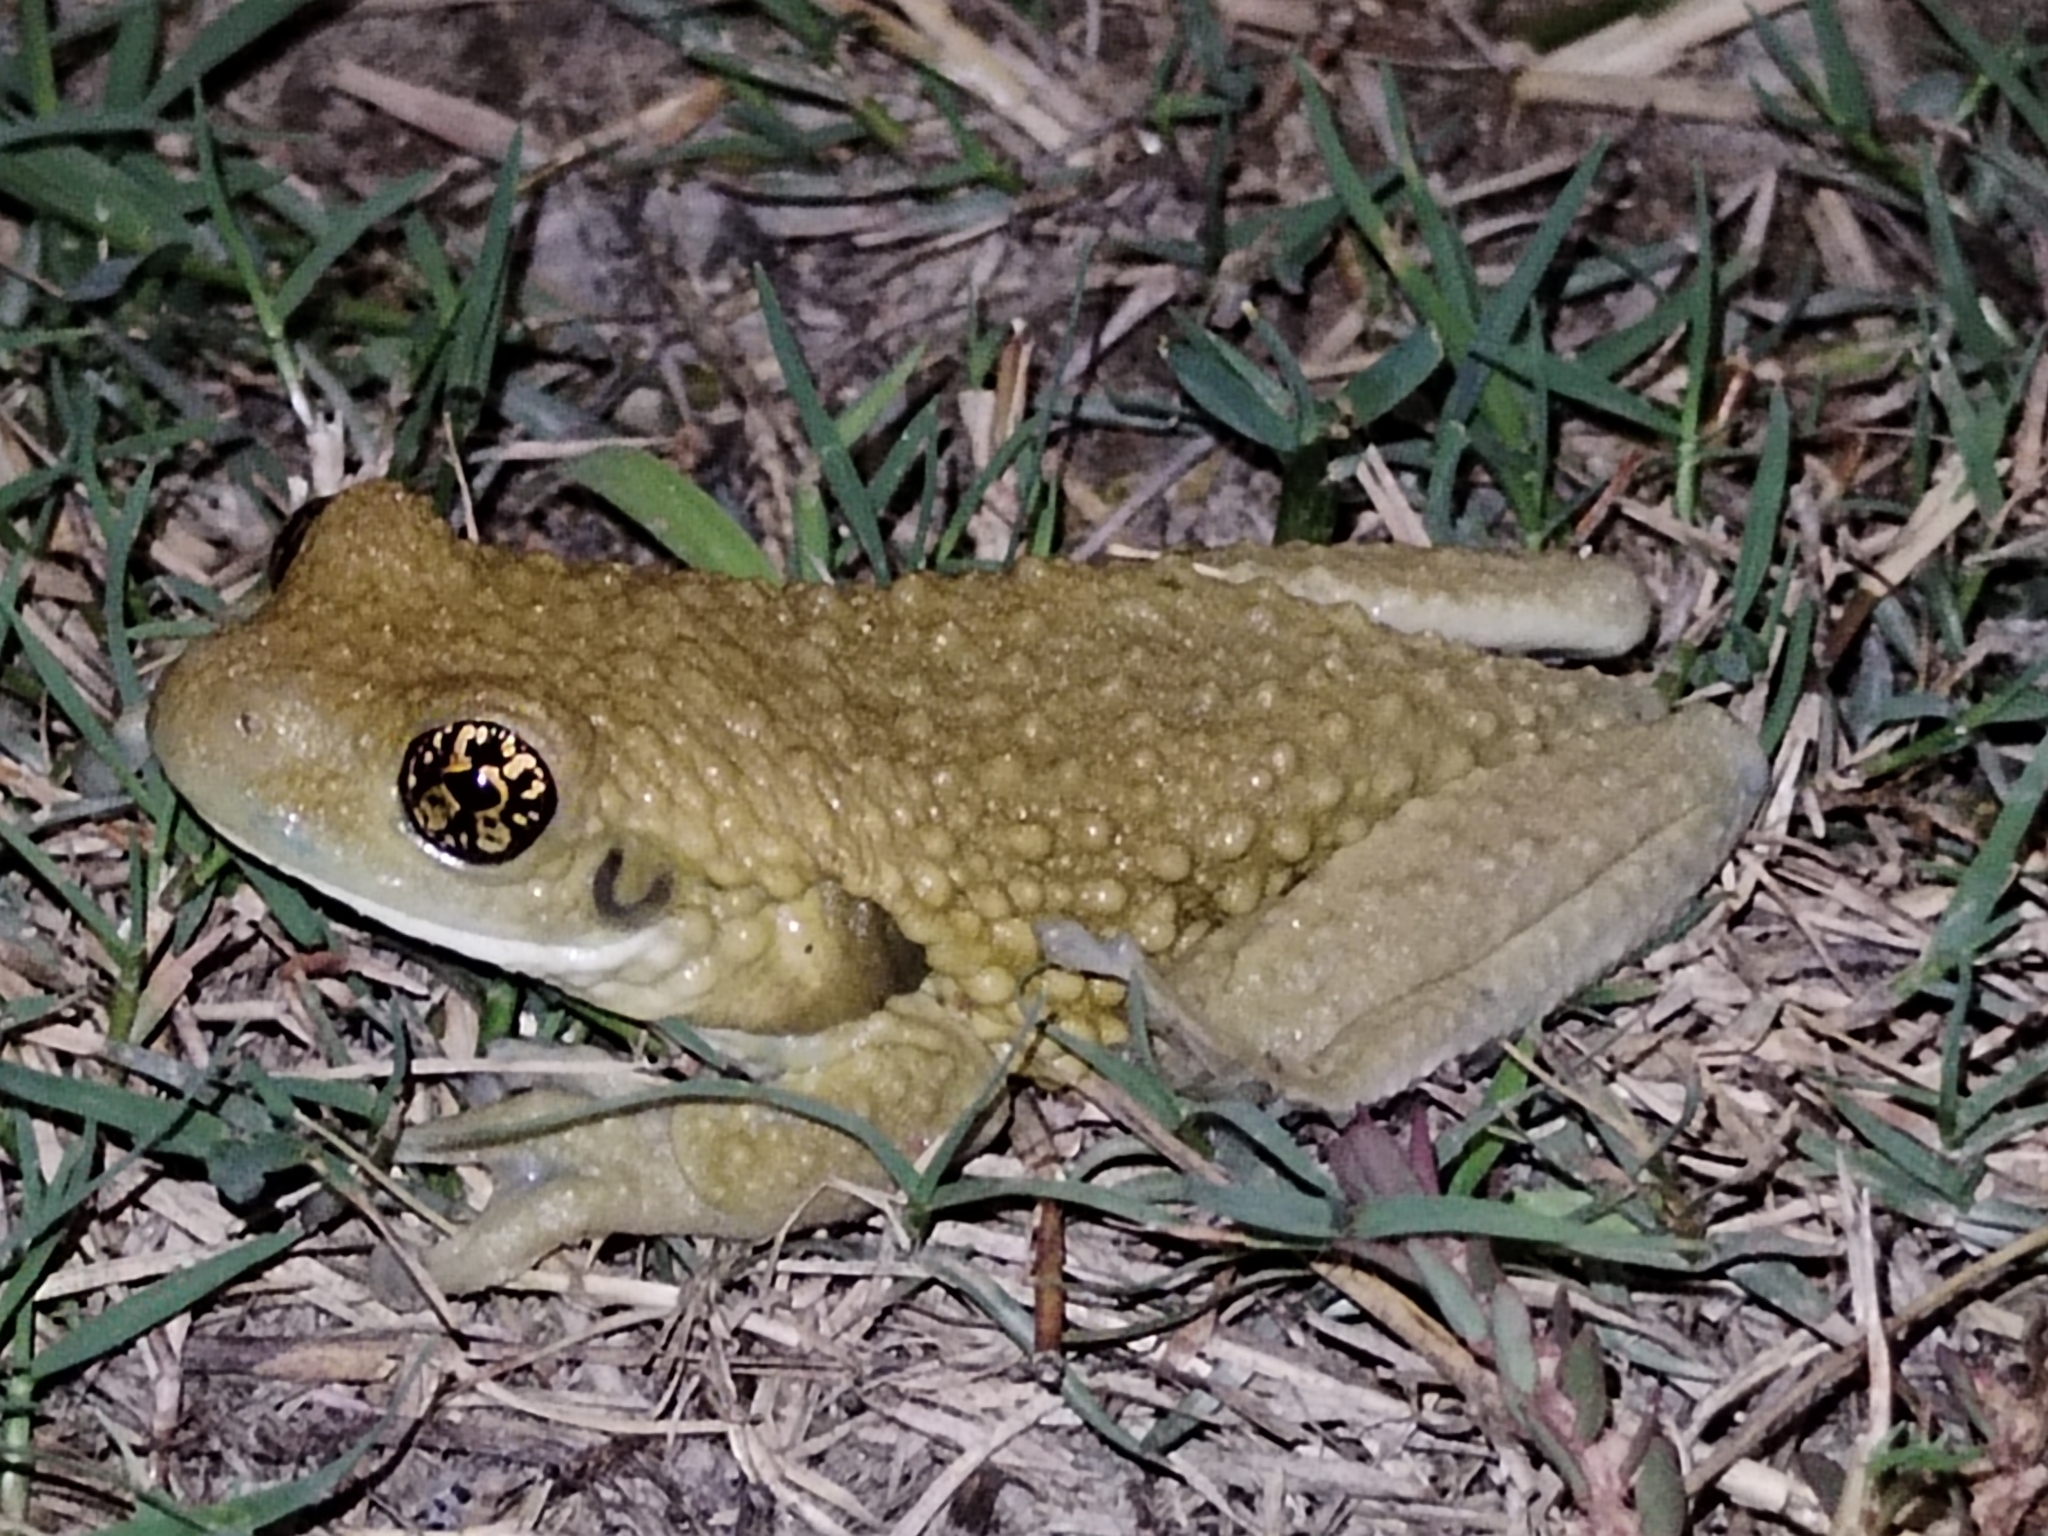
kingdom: Animalia
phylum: Chordata
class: Amphibia
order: Anura
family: Hylidae
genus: Trachycephalus
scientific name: Trachycephalus vermiculatus
